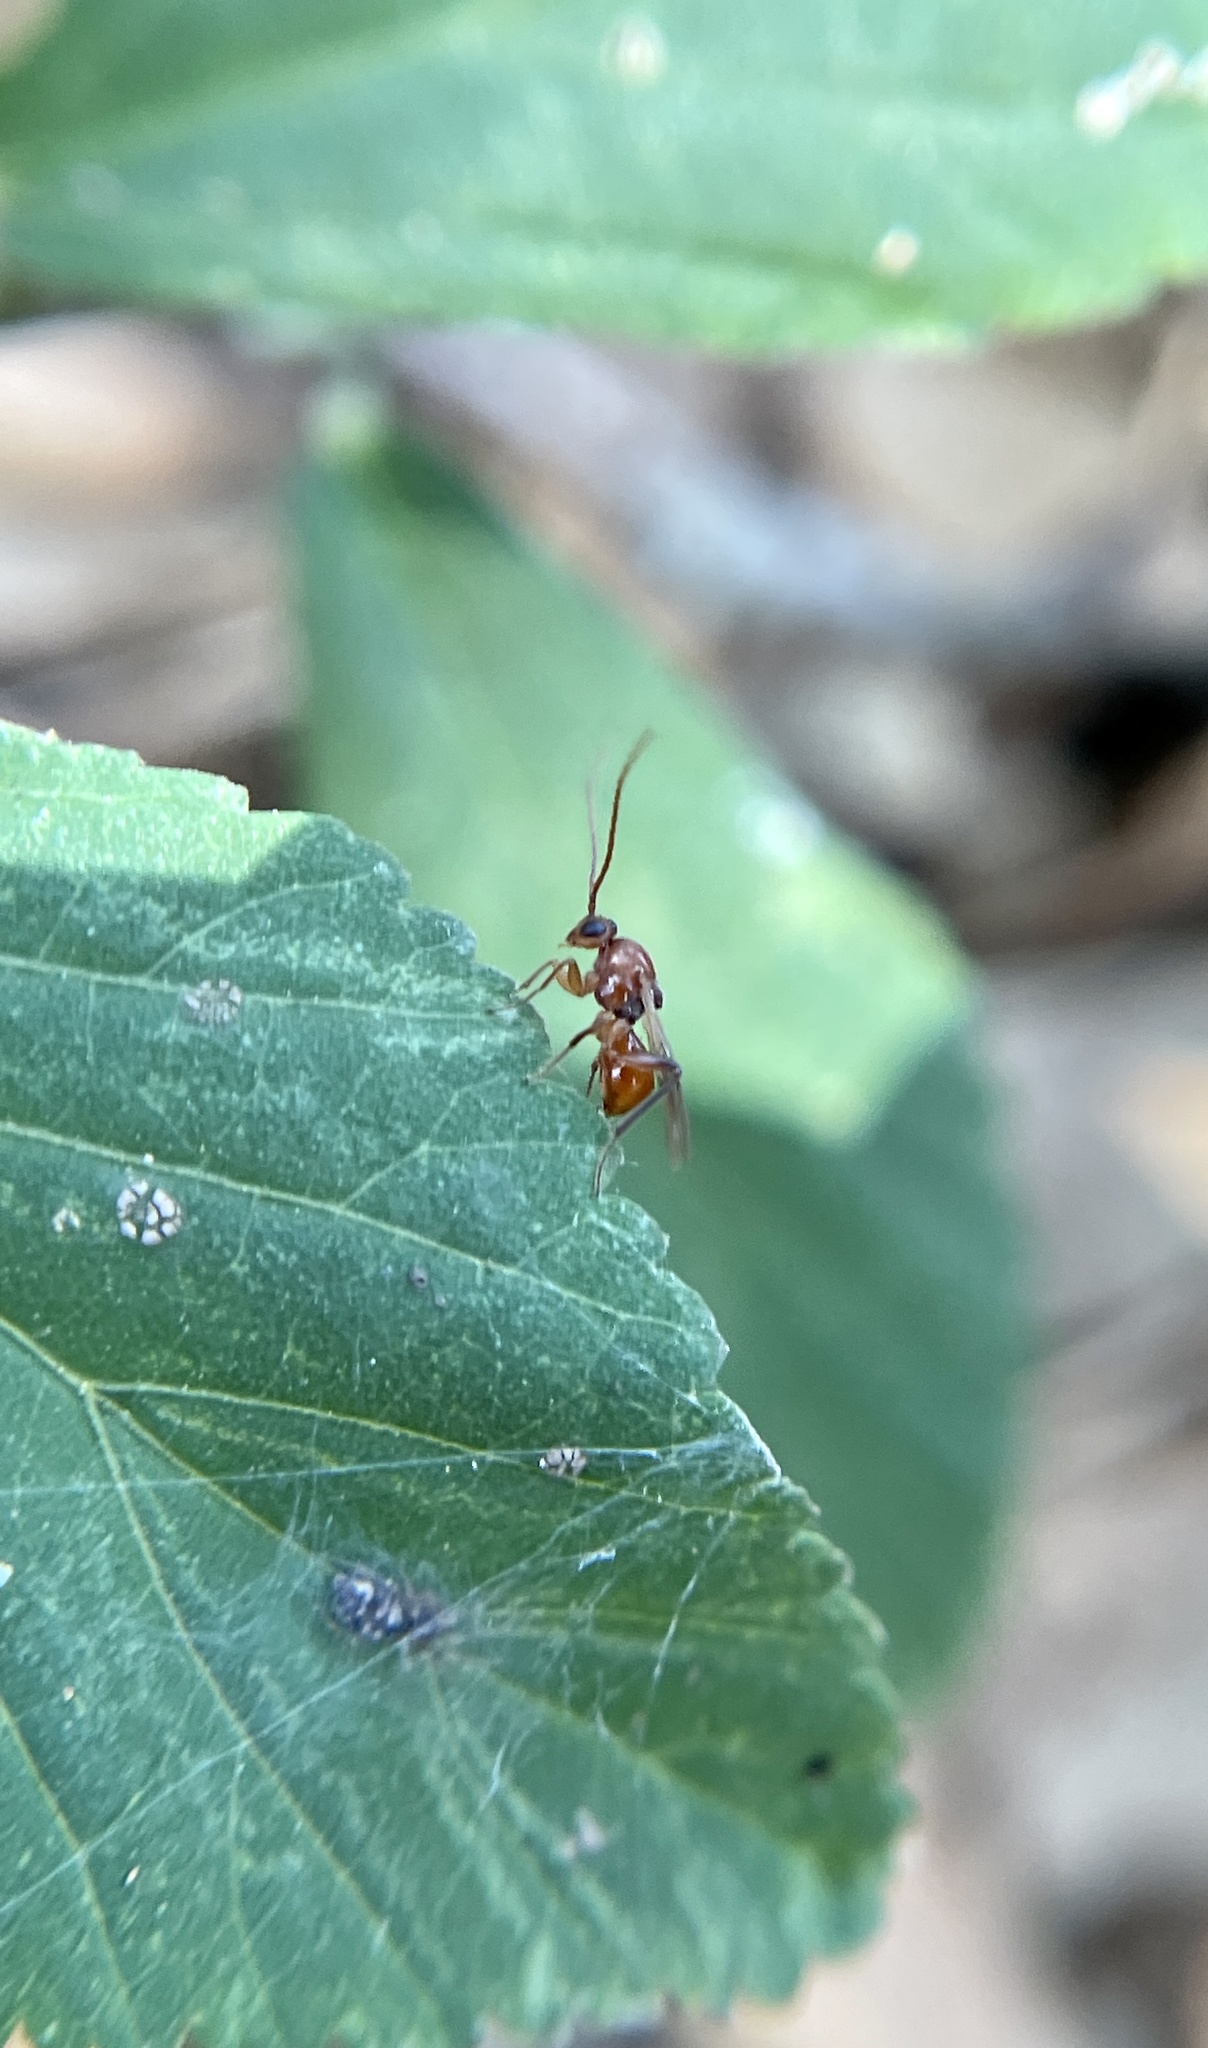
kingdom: Animalia
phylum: Arthropoda
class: Insecta
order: Hymenoptera
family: Cynipidae
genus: Belonocnema
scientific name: Belonocnema kinseyi
